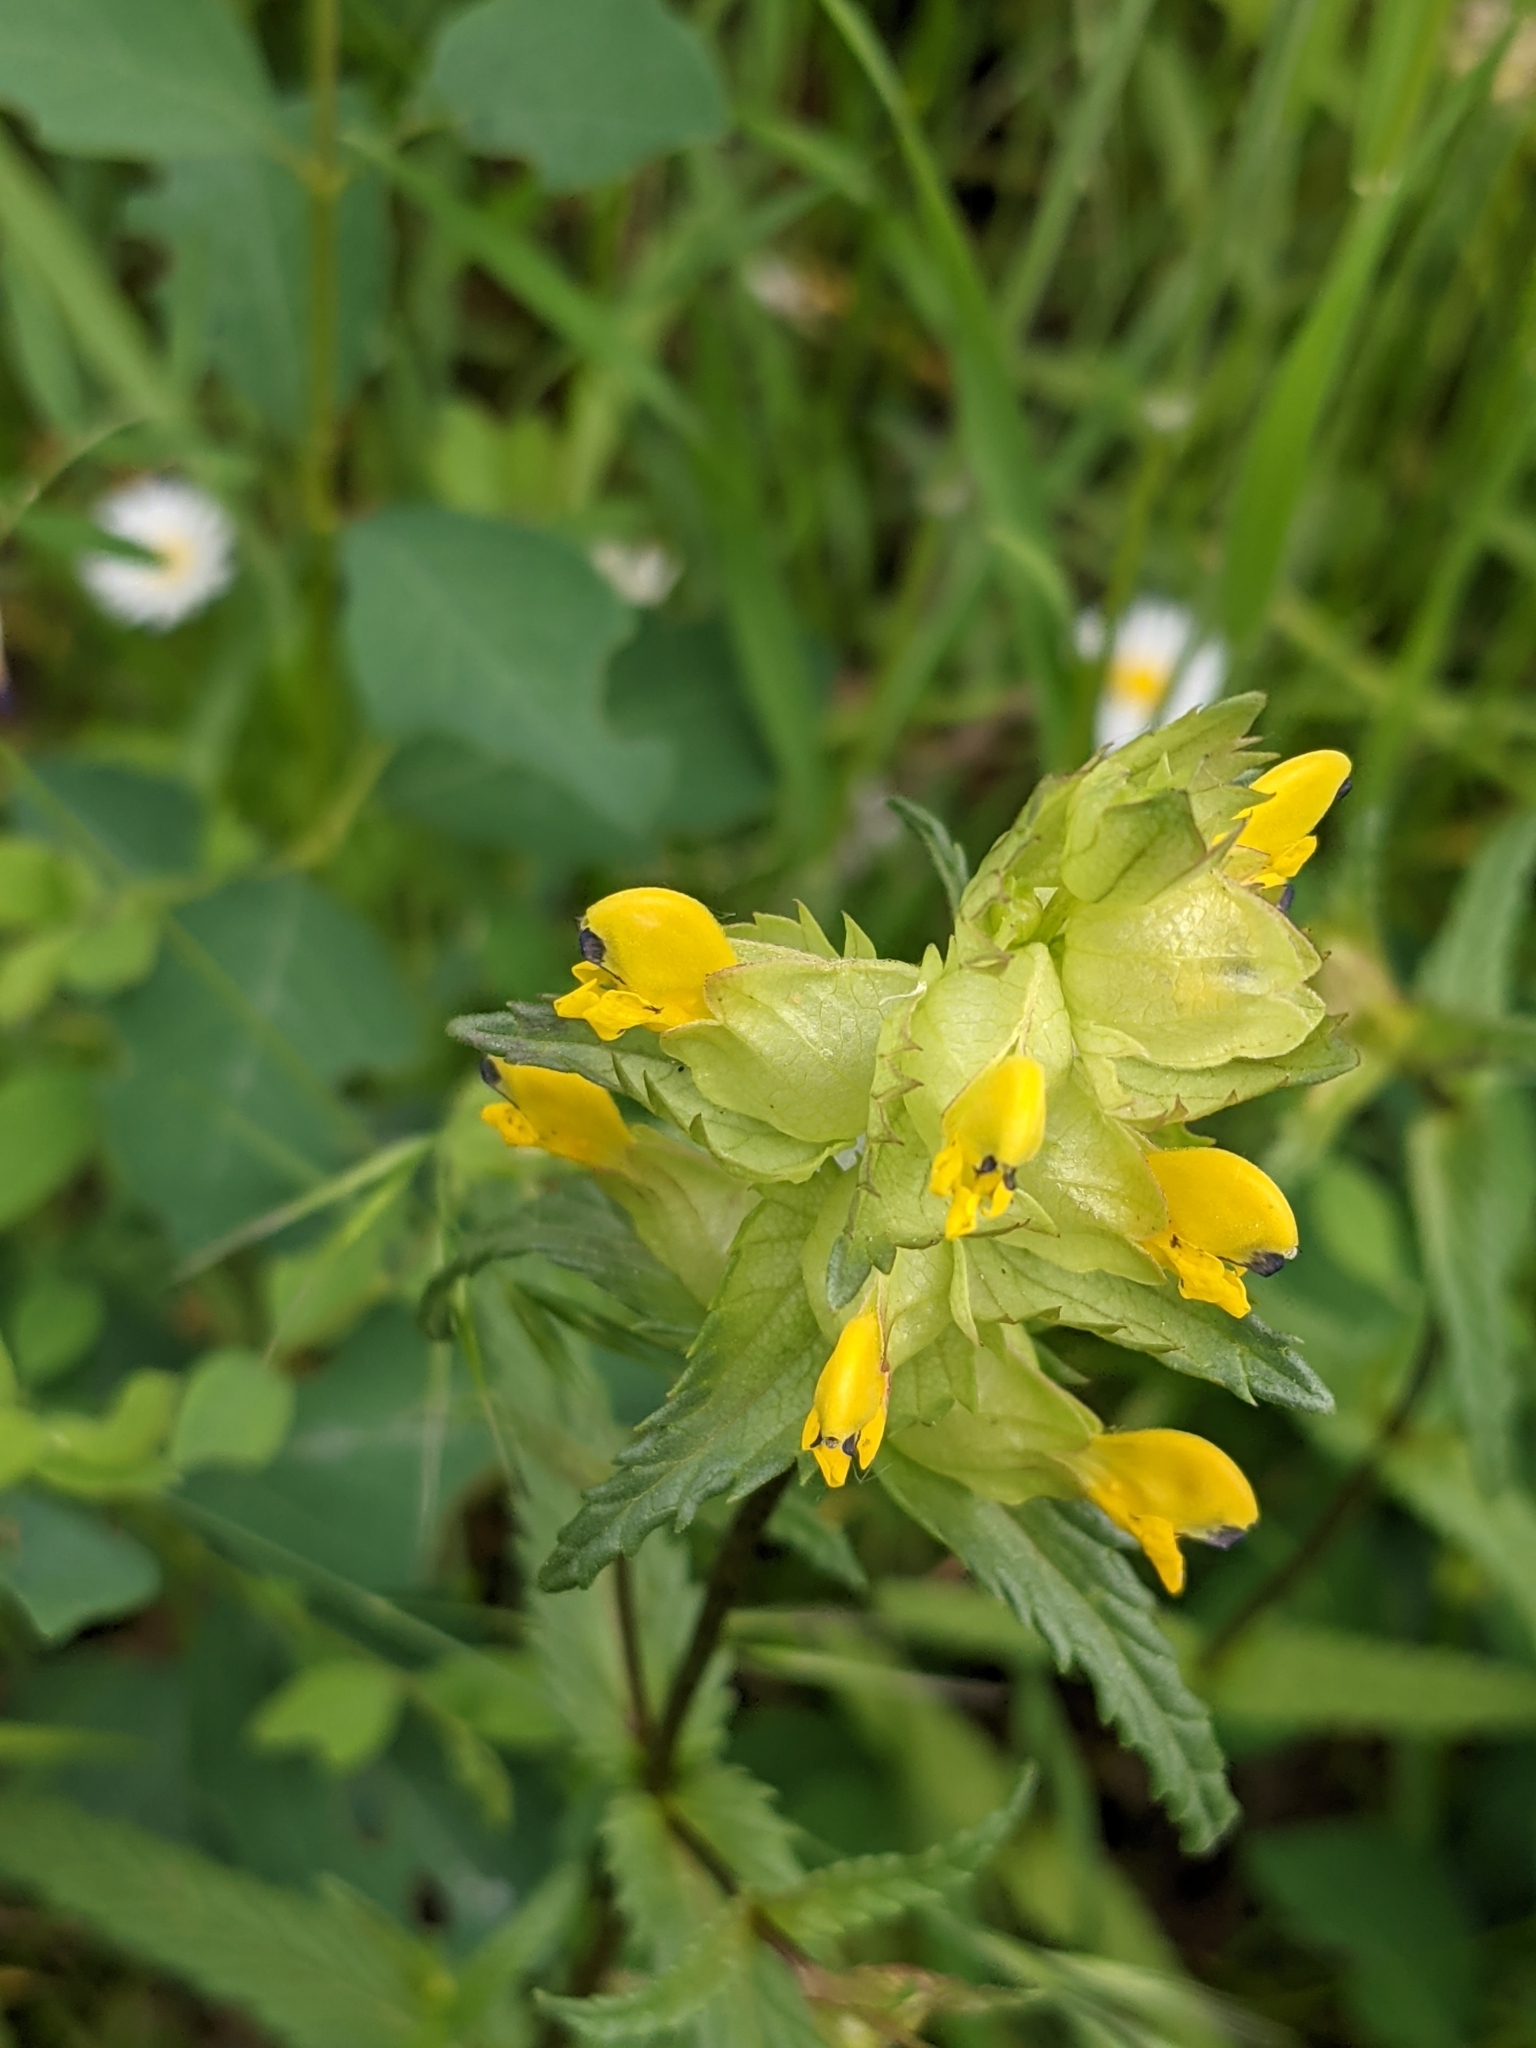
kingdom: Plantae
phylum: Tracheophyta
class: Magnoliopsida
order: Lamiales
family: Orobanchaceae
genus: Rhinanthus
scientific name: Rhinanthus minor
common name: Yellow-rattle
